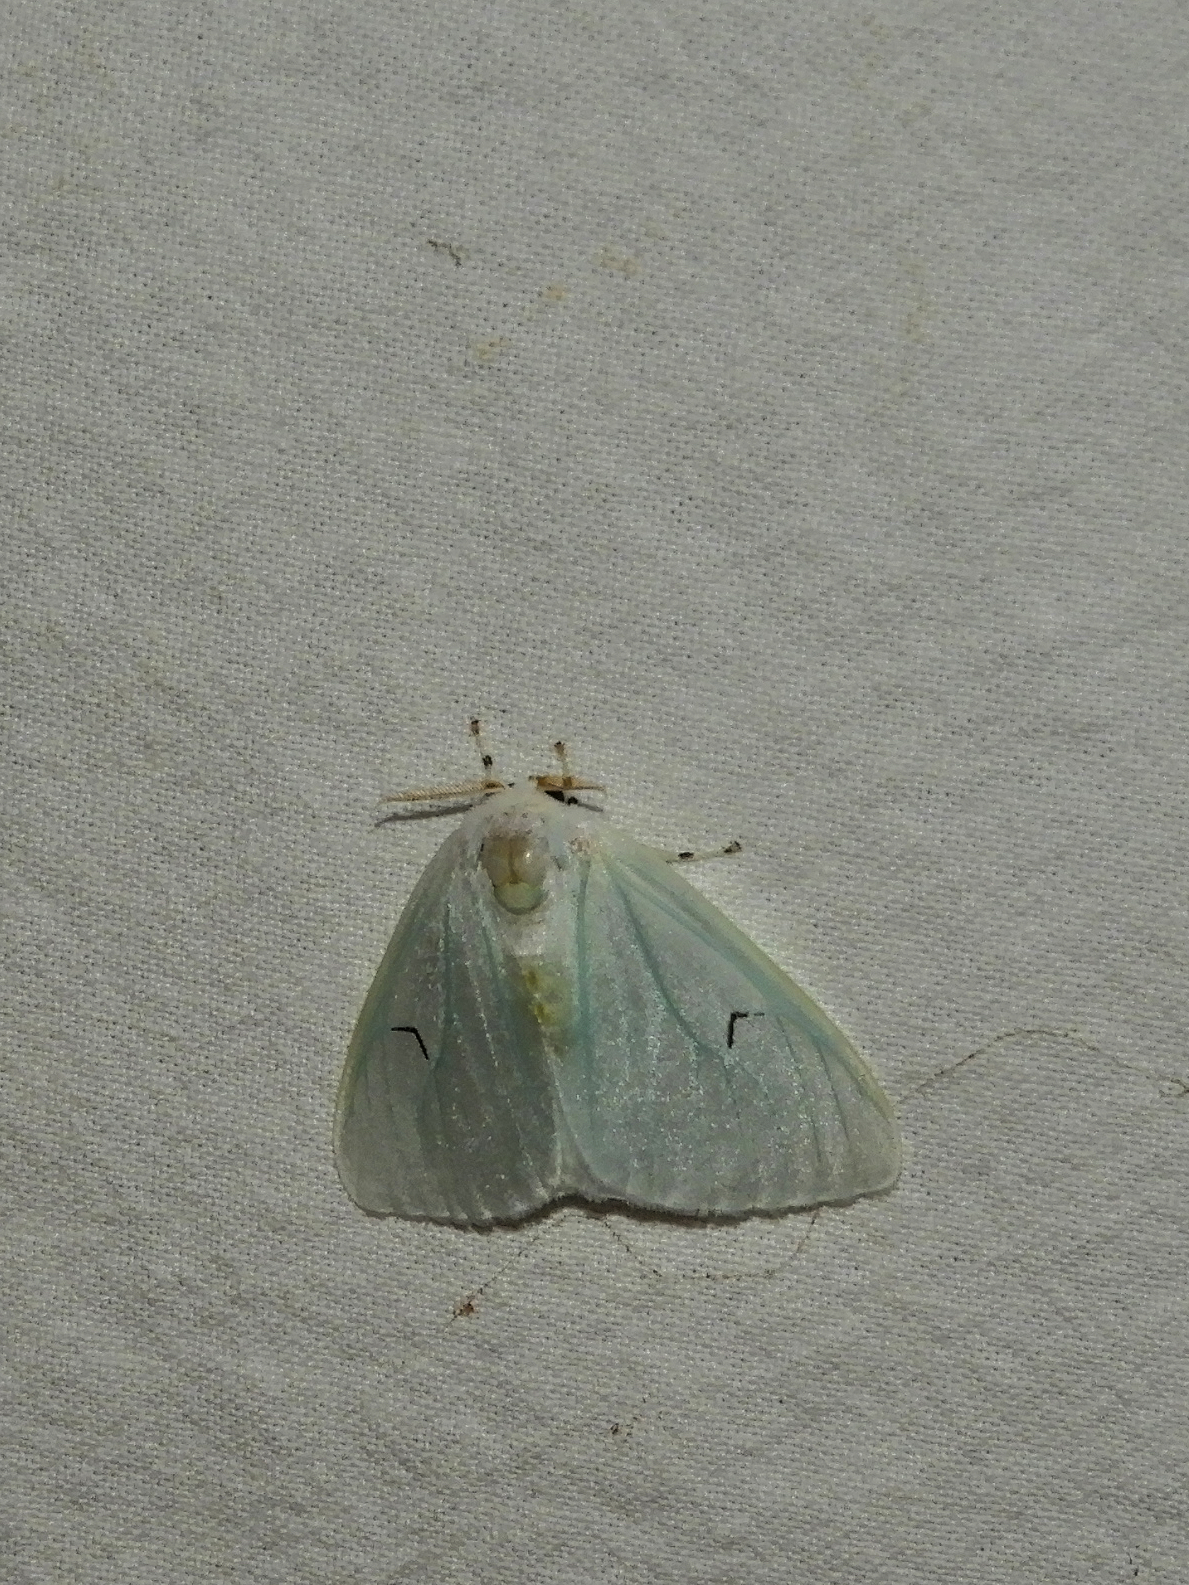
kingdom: Animalia
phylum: Arthropoda
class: Insecta
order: Lepidoptera
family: Erebidae
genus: Arctornis
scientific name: Arctornis l-nigrum
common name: Black v moth
